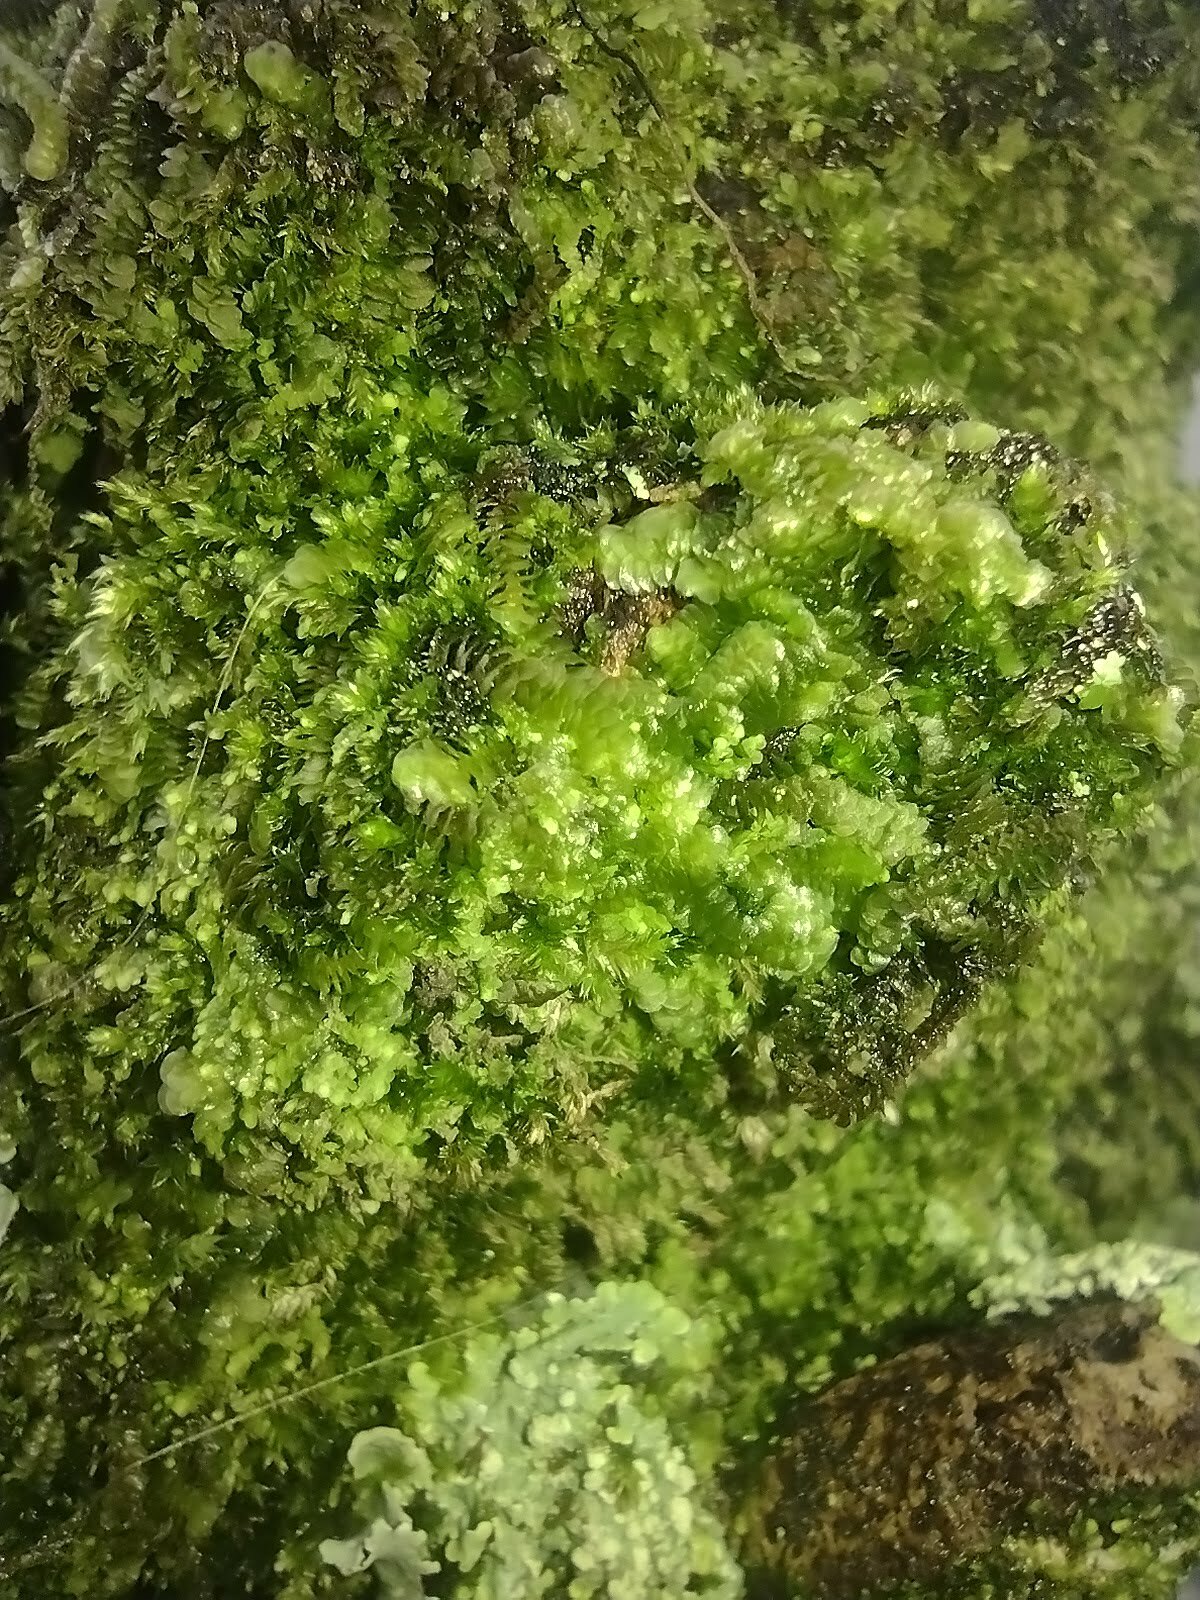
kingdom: Plantae
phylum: Marchantiophyta
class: Jungermanniopsida
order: Porellales
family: Lejeuneaceae
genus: Acrolejeunea
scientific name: Acrolejeunea sandvicensis
